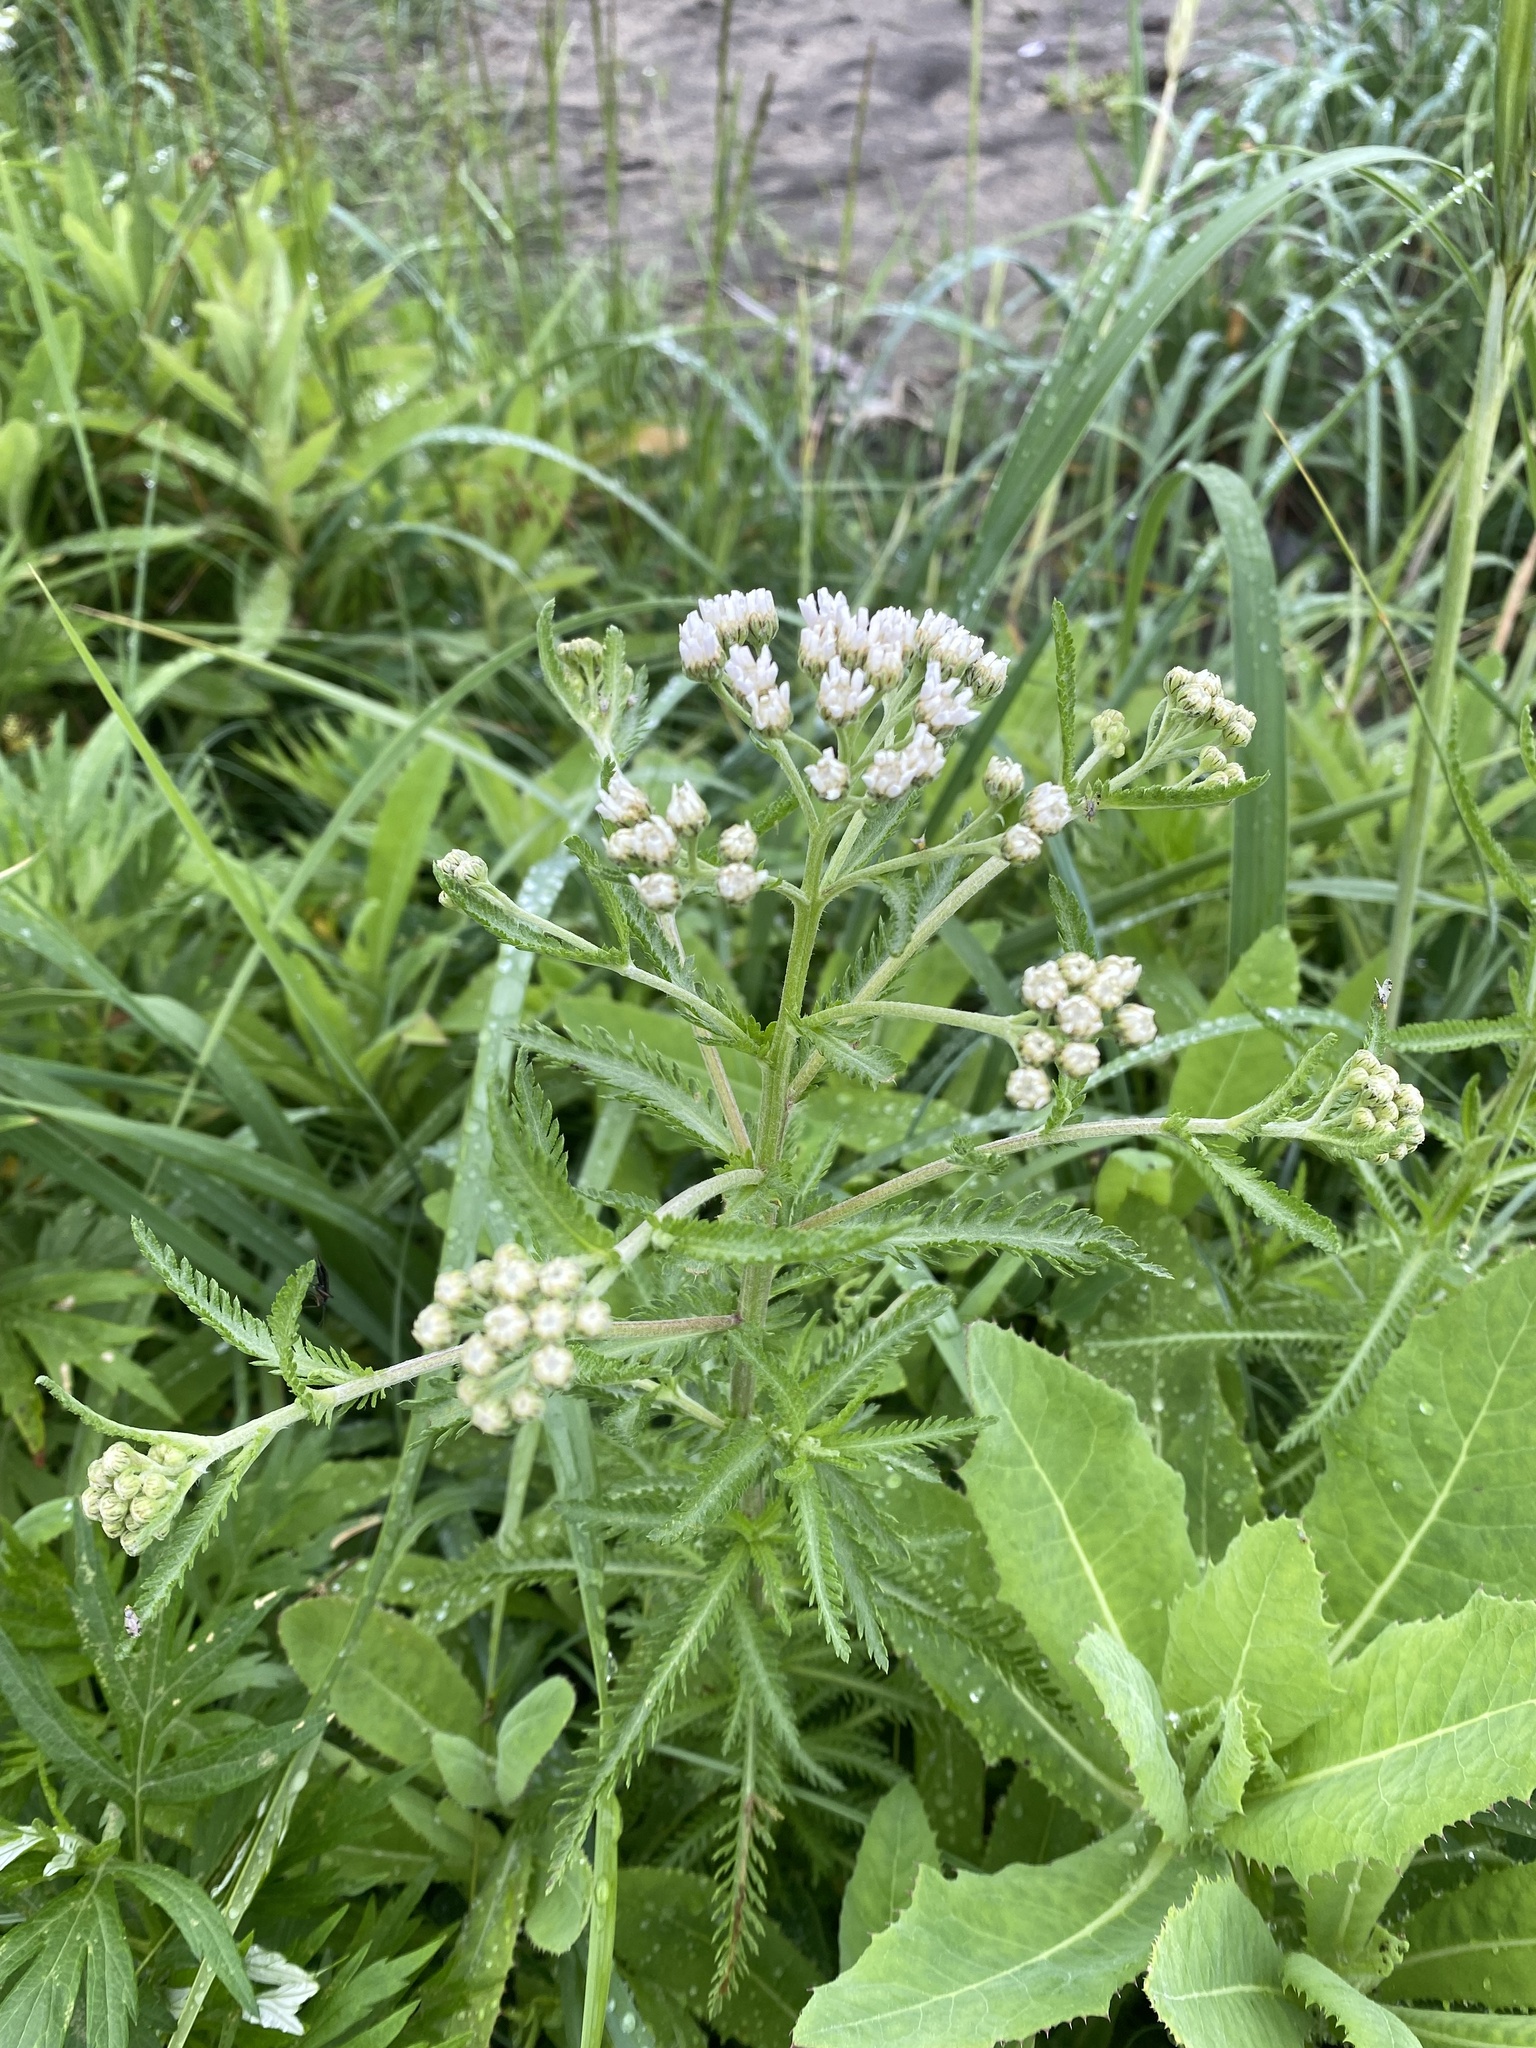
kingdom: Plantae
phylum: Tracheophyta
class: Magnoliopsida
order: Asterales
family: Asteraceae
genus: Achillea
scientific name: Achillea alpina
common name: Siberian yarrow
